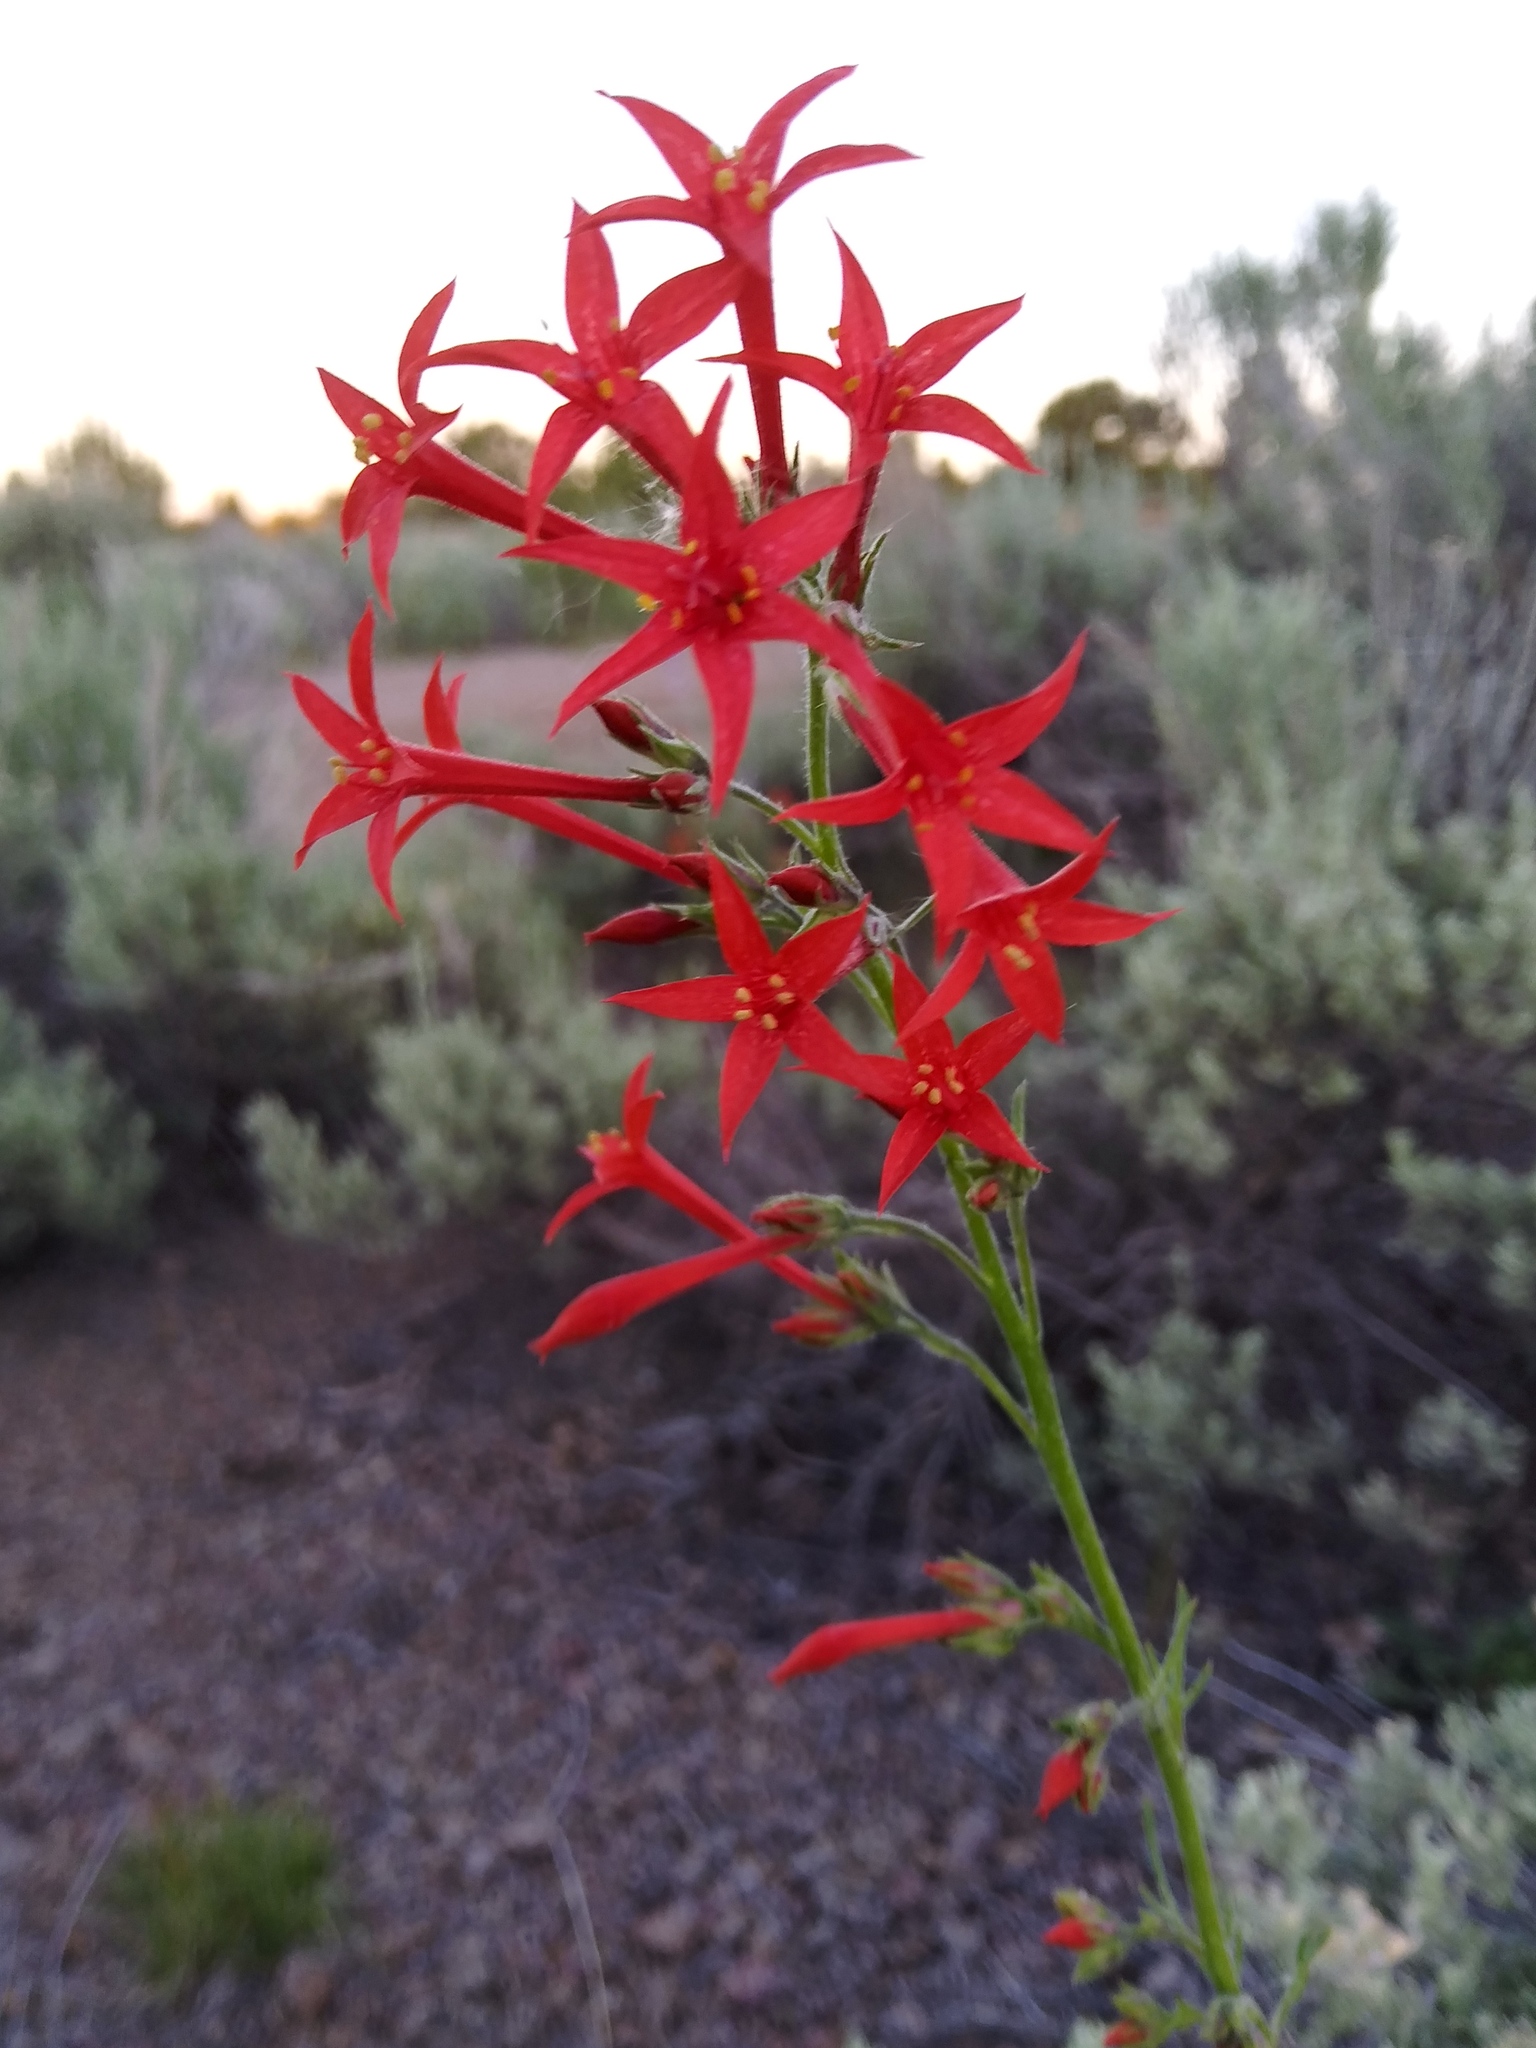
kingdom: Plantae
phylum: Tracheophyta
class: Magnoliopsida
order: Ericales
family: Polemoniaceae
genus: Ipomopsis
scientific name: Ipomopsis aggregata
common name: Scarlet gilia
